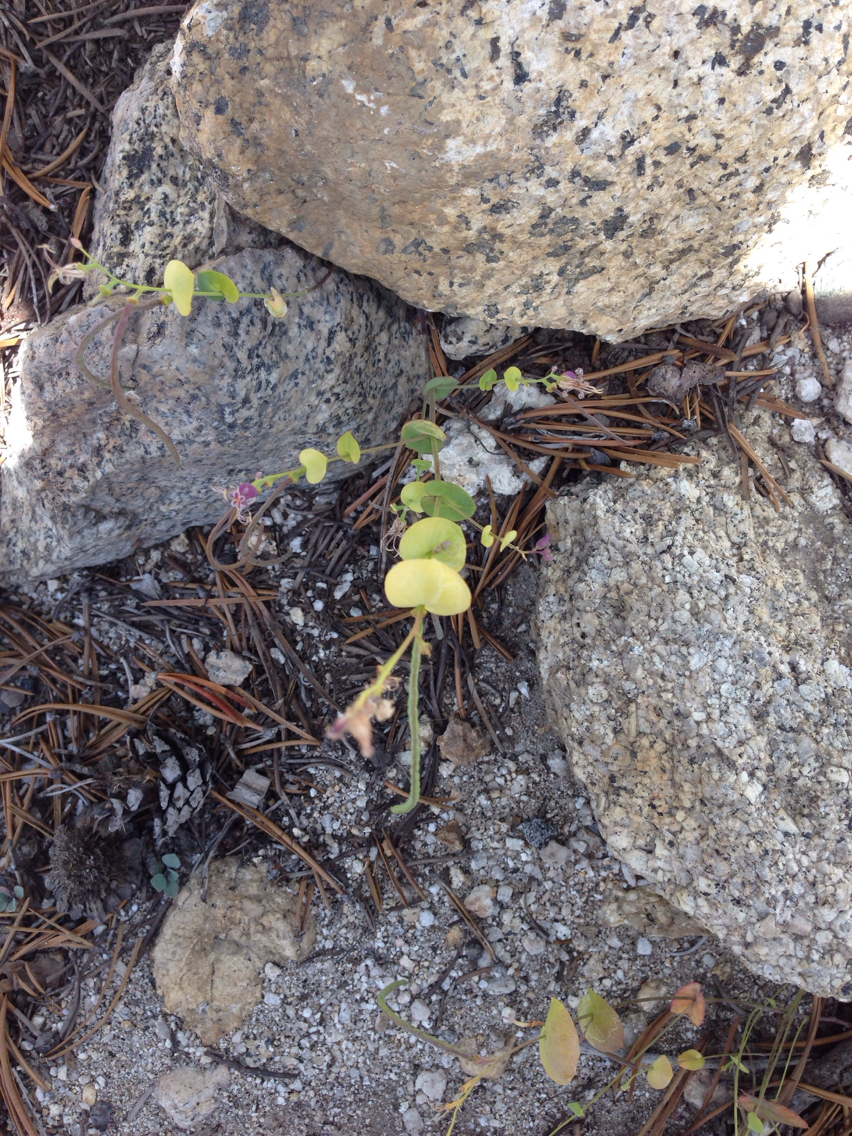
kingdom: Plantae
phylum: Tracheophyta
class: Magnoliopsida
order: Brassicales
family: Brassicaceae
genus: Streptanthus
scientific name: Streptanthus tortuosus
